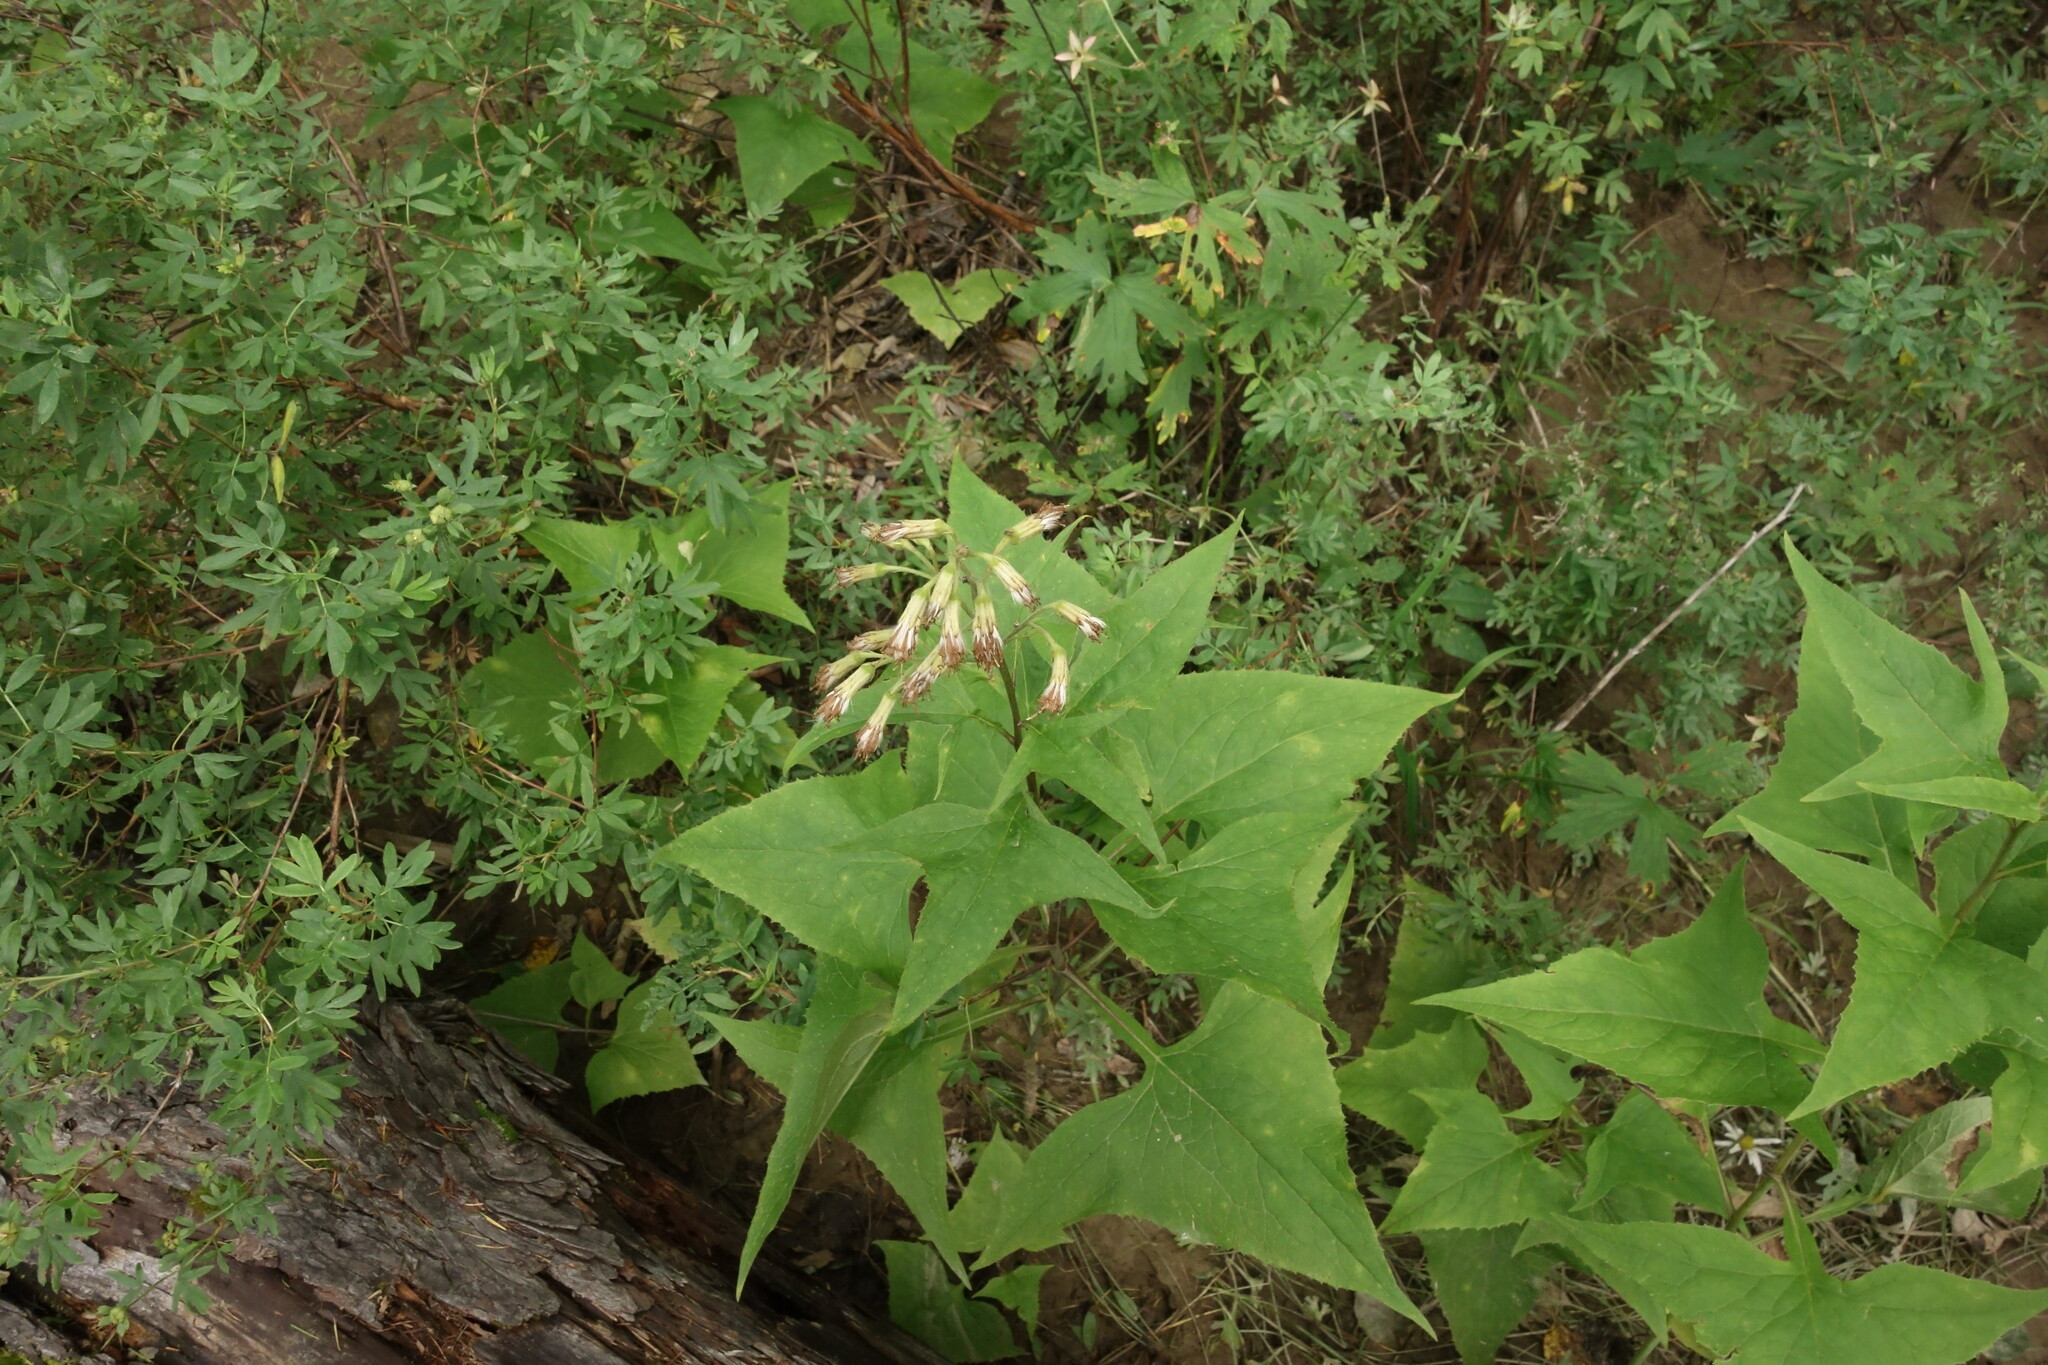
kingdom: Plantae
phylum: Tracheophyta
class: Magnoliopsida
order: Asterales
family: Asteraceae
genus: Parasenecio
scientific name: Parasenecio hastatus
